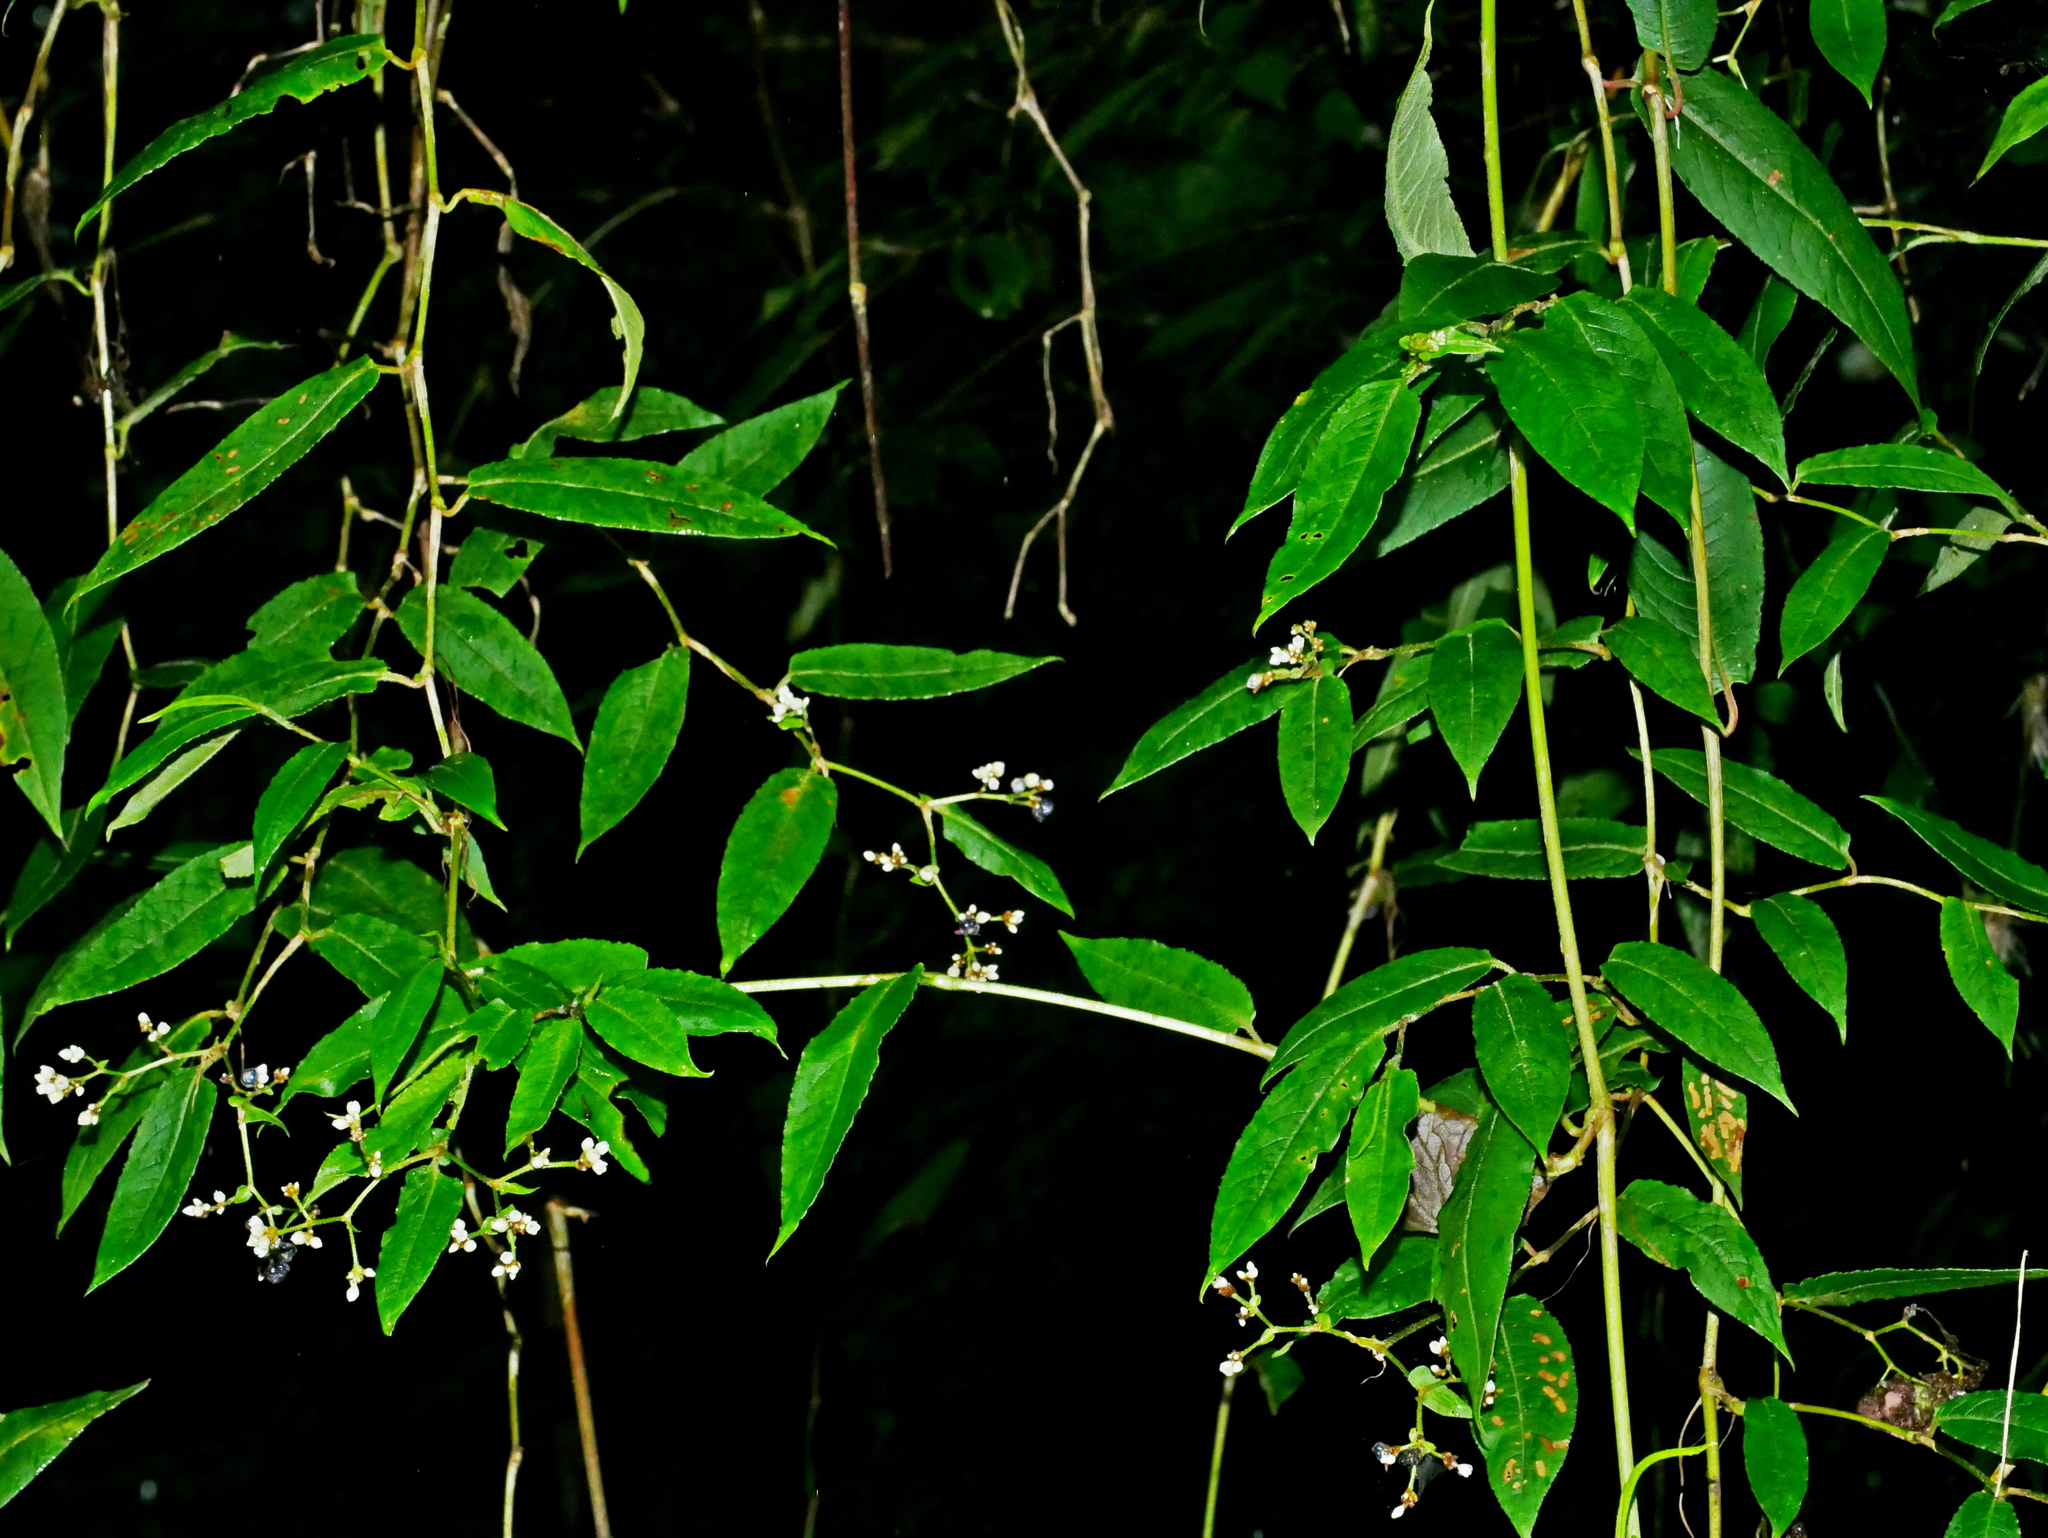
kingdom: Plantae
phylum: Tracheophyta
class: Magnoliopsida
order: Caryophyllales
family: Polygonaceae
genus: Persicaria
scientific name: Persicaria chinensis
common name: Chinese knotweed
